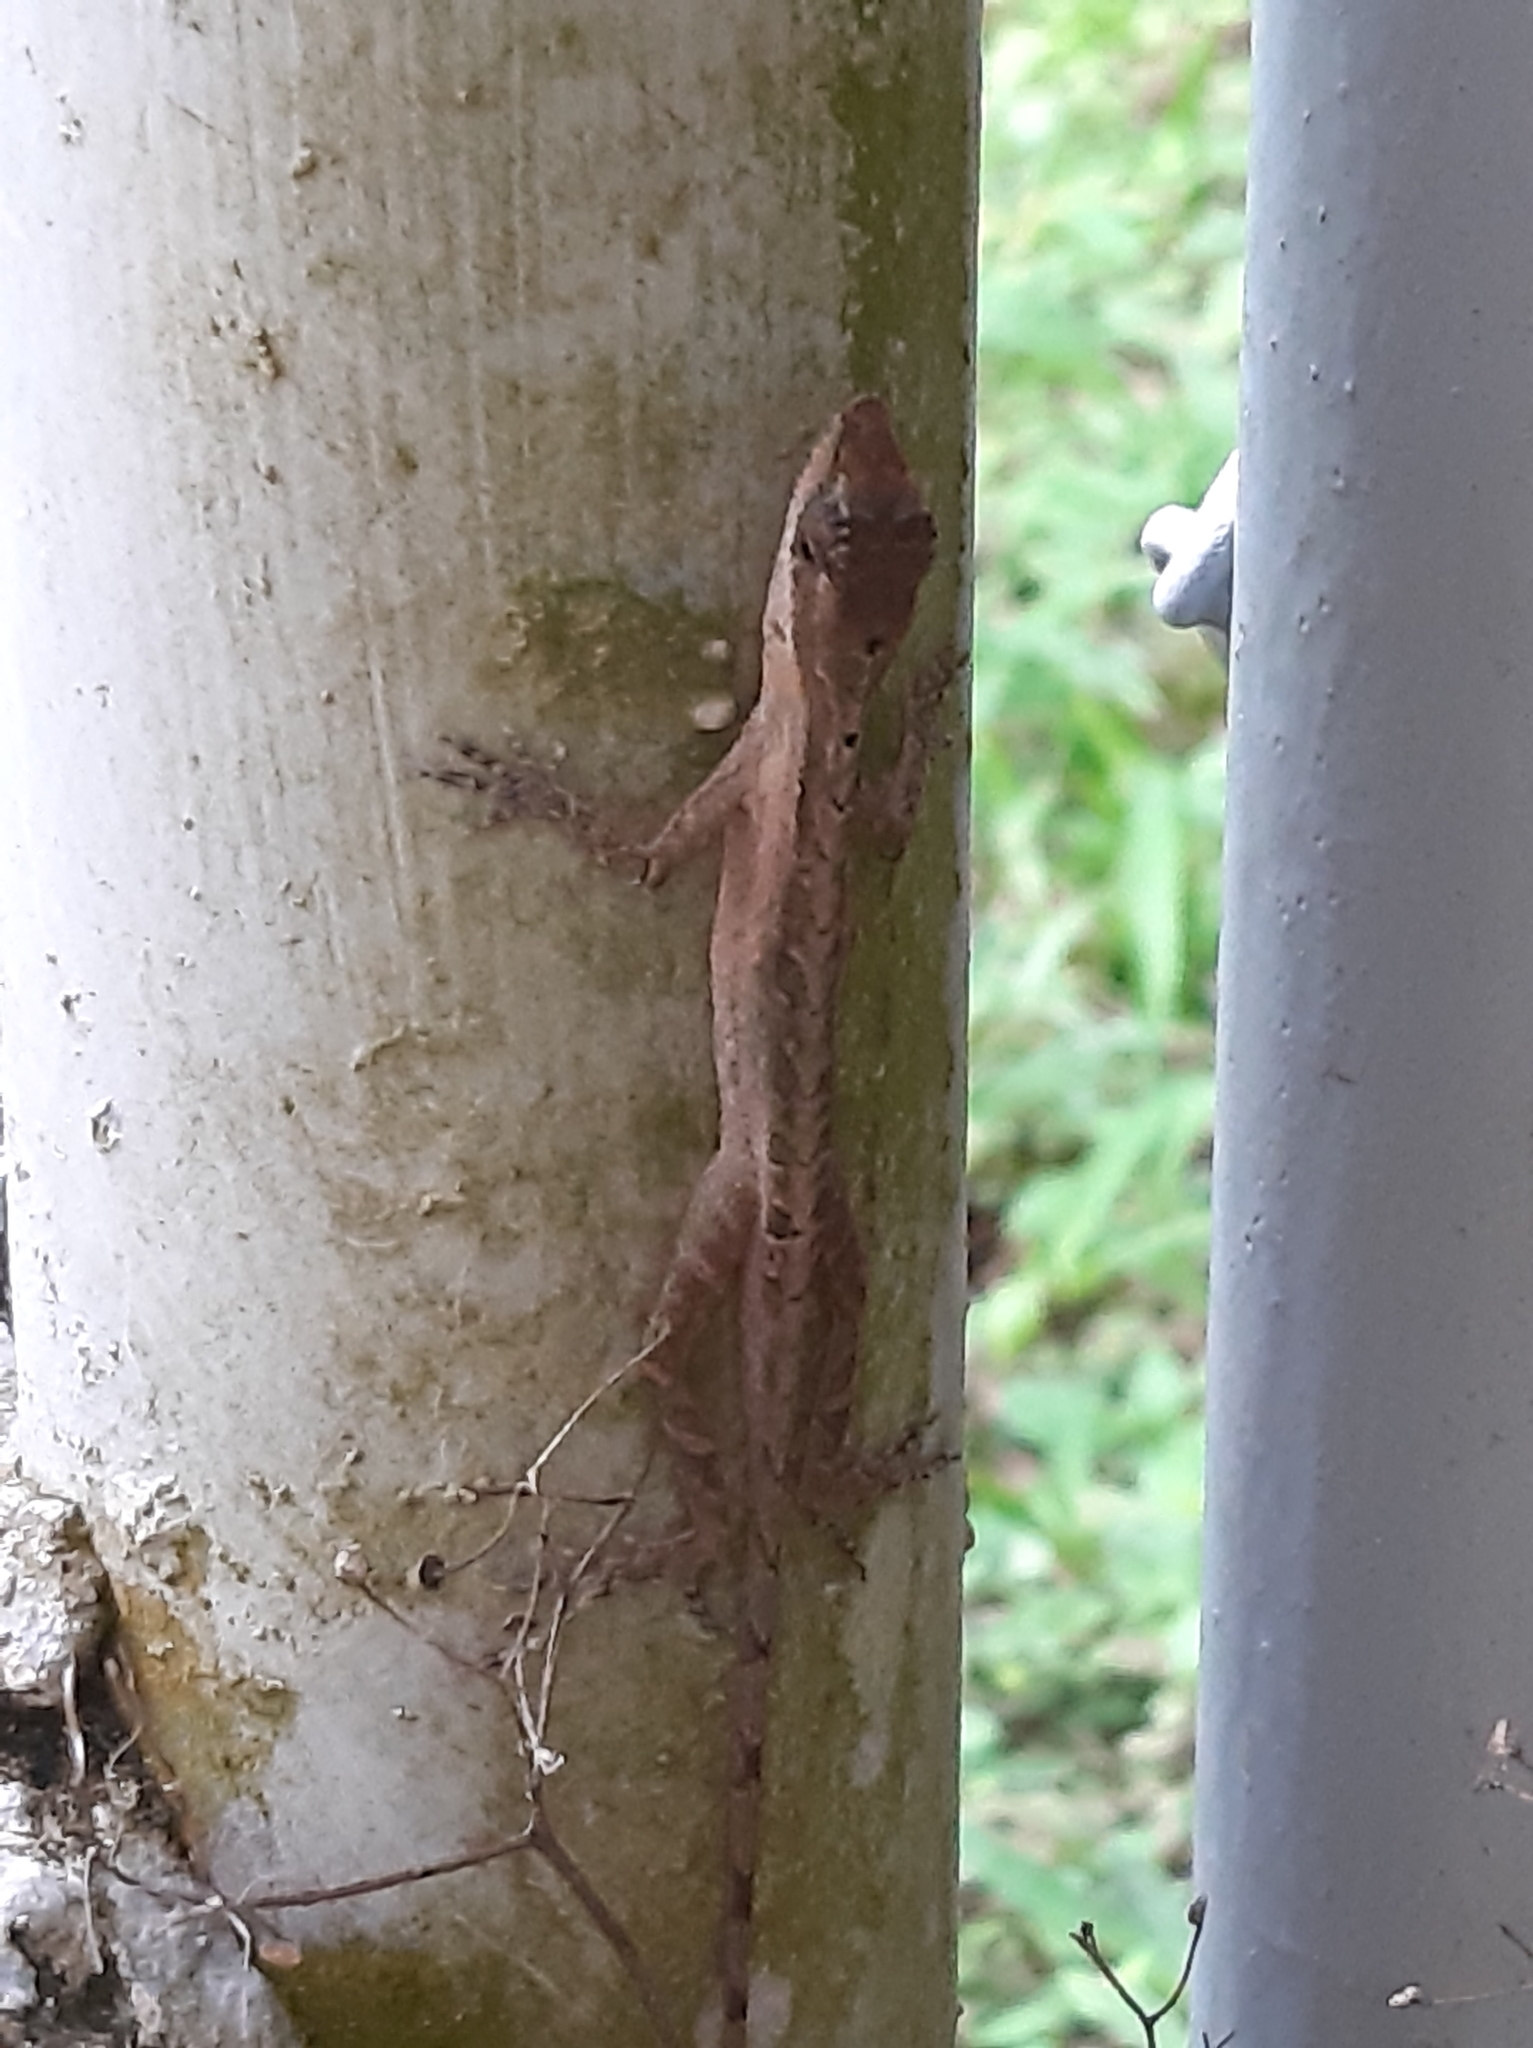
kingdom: Animalia
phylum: Chordata
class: Squamata
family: Dactyloidae
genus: Anolis
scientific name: Anolis limifrons
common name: Border anole
